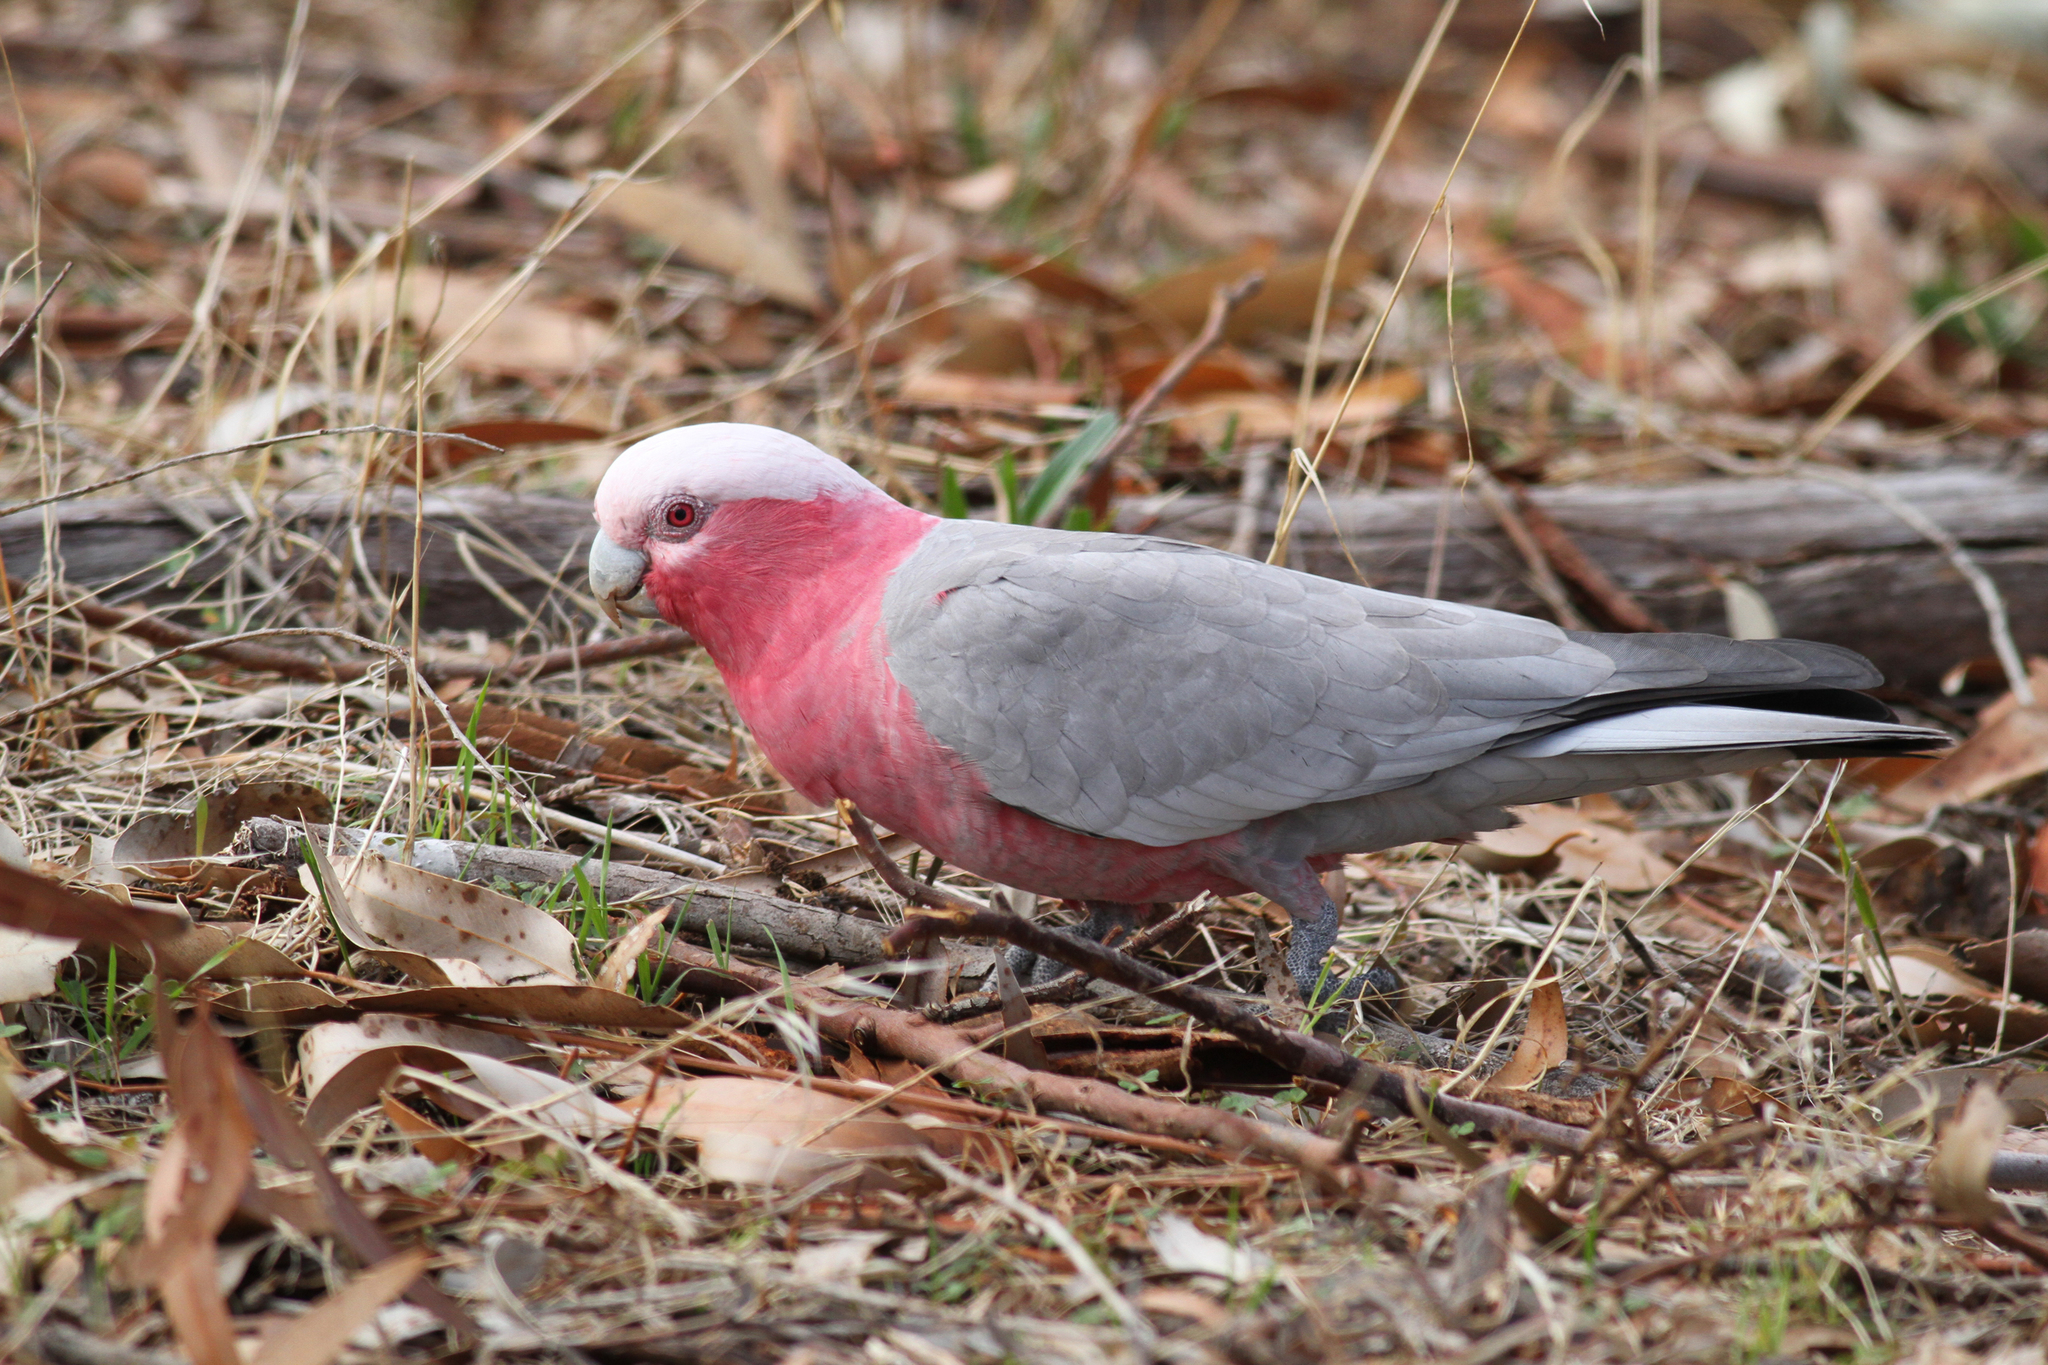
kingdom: Animalia
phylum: Chordata
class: Aves
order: Psittaciformes
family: Psittacidae
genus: Eolophus
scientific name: Eolophus roseicapilla
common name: Galah
